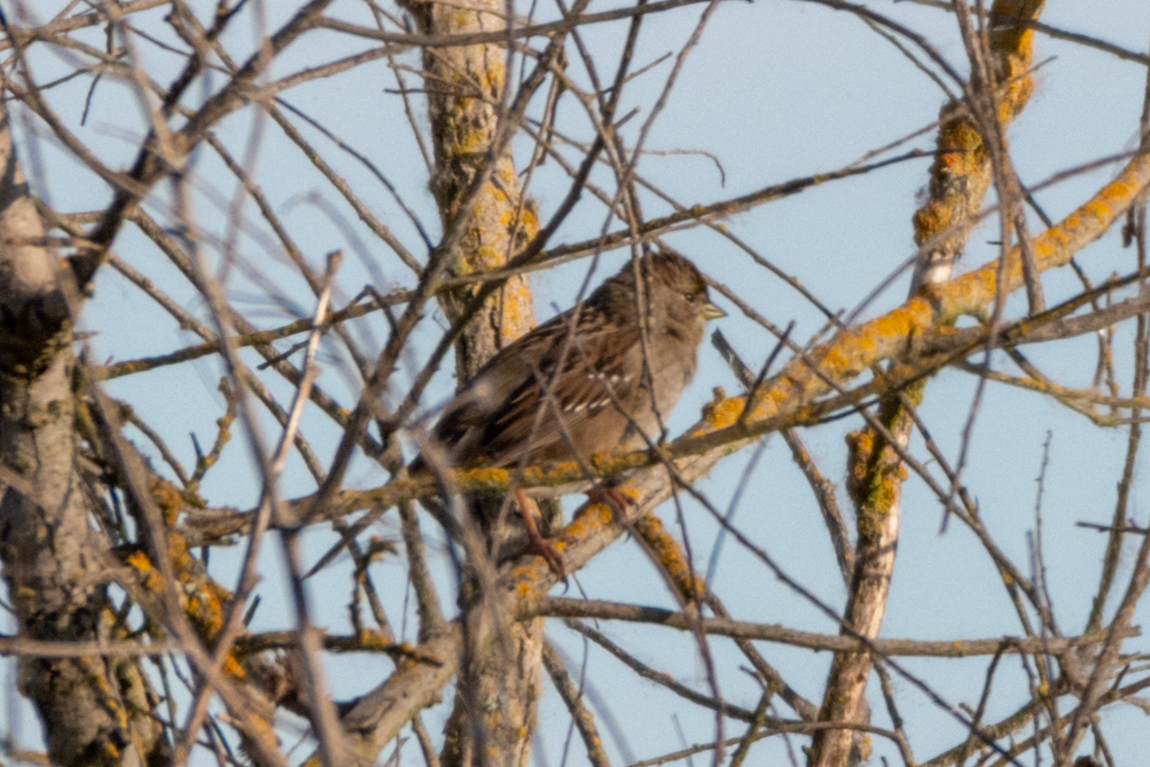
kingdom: Animalia
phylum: Chordata
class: Aves
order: Passeriformes
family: Passerellidae
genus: Zonotrichia
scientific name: Zonotrichia atricapilla
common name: Golden-crowned sparrow
